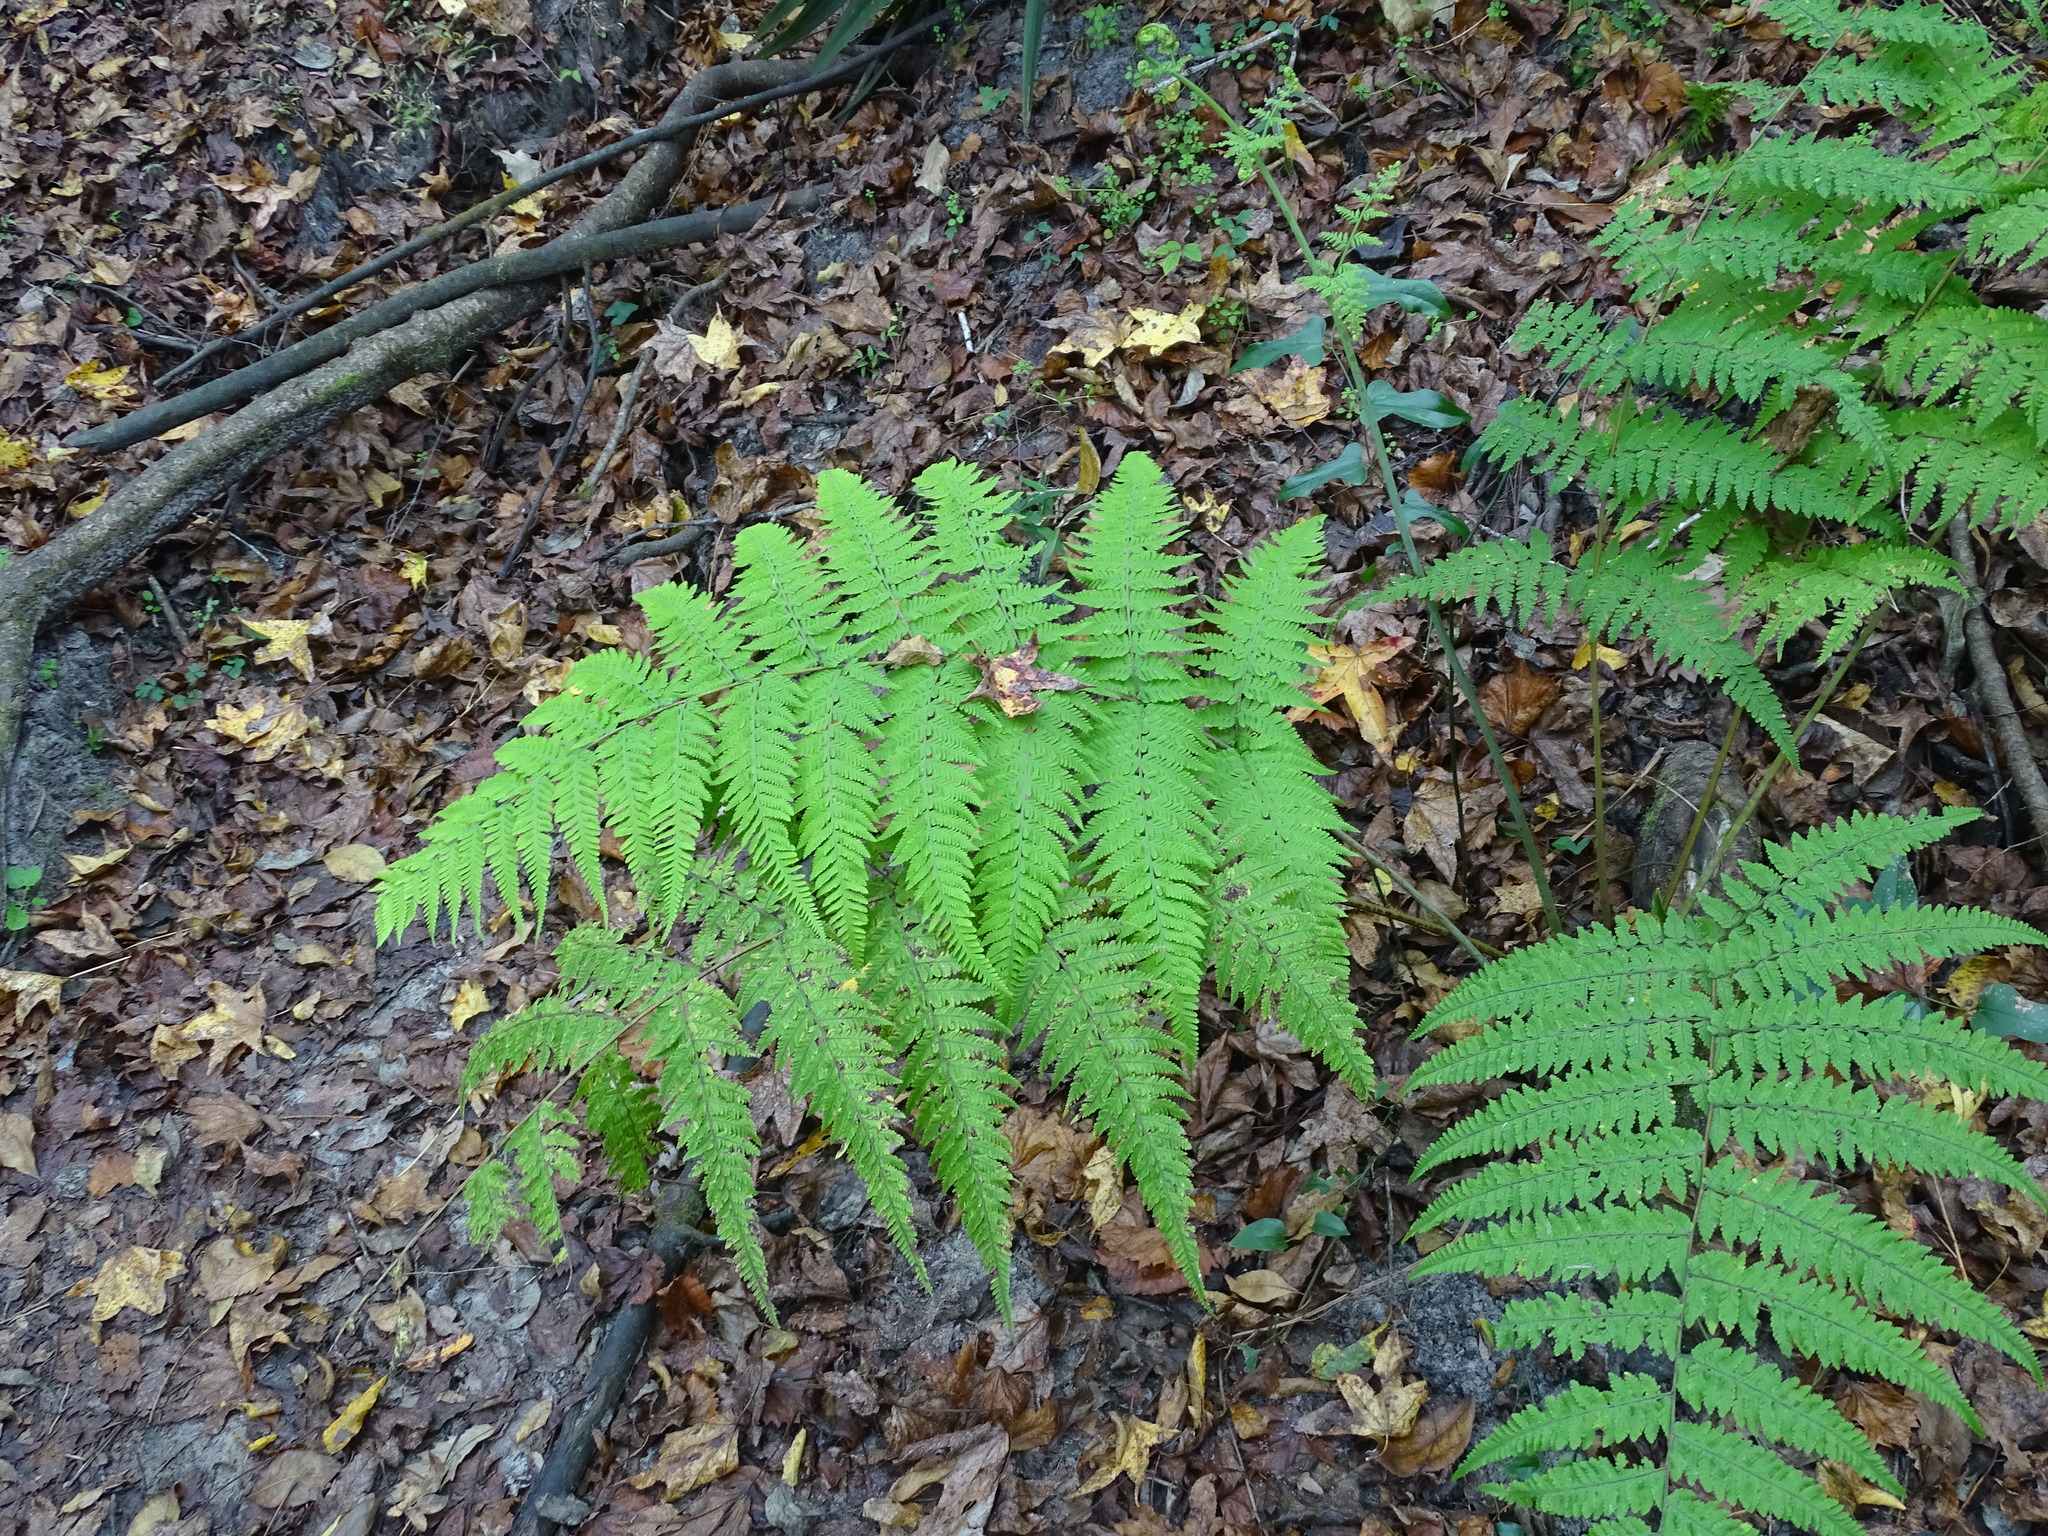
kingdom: Plantae
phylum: Tracheophyta
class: Polypodiopsida
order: Polypodiales
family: Thelypteridaceae
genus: Macrothelypteris
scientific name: Macrothelypteris torresiana
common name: Swordfern
